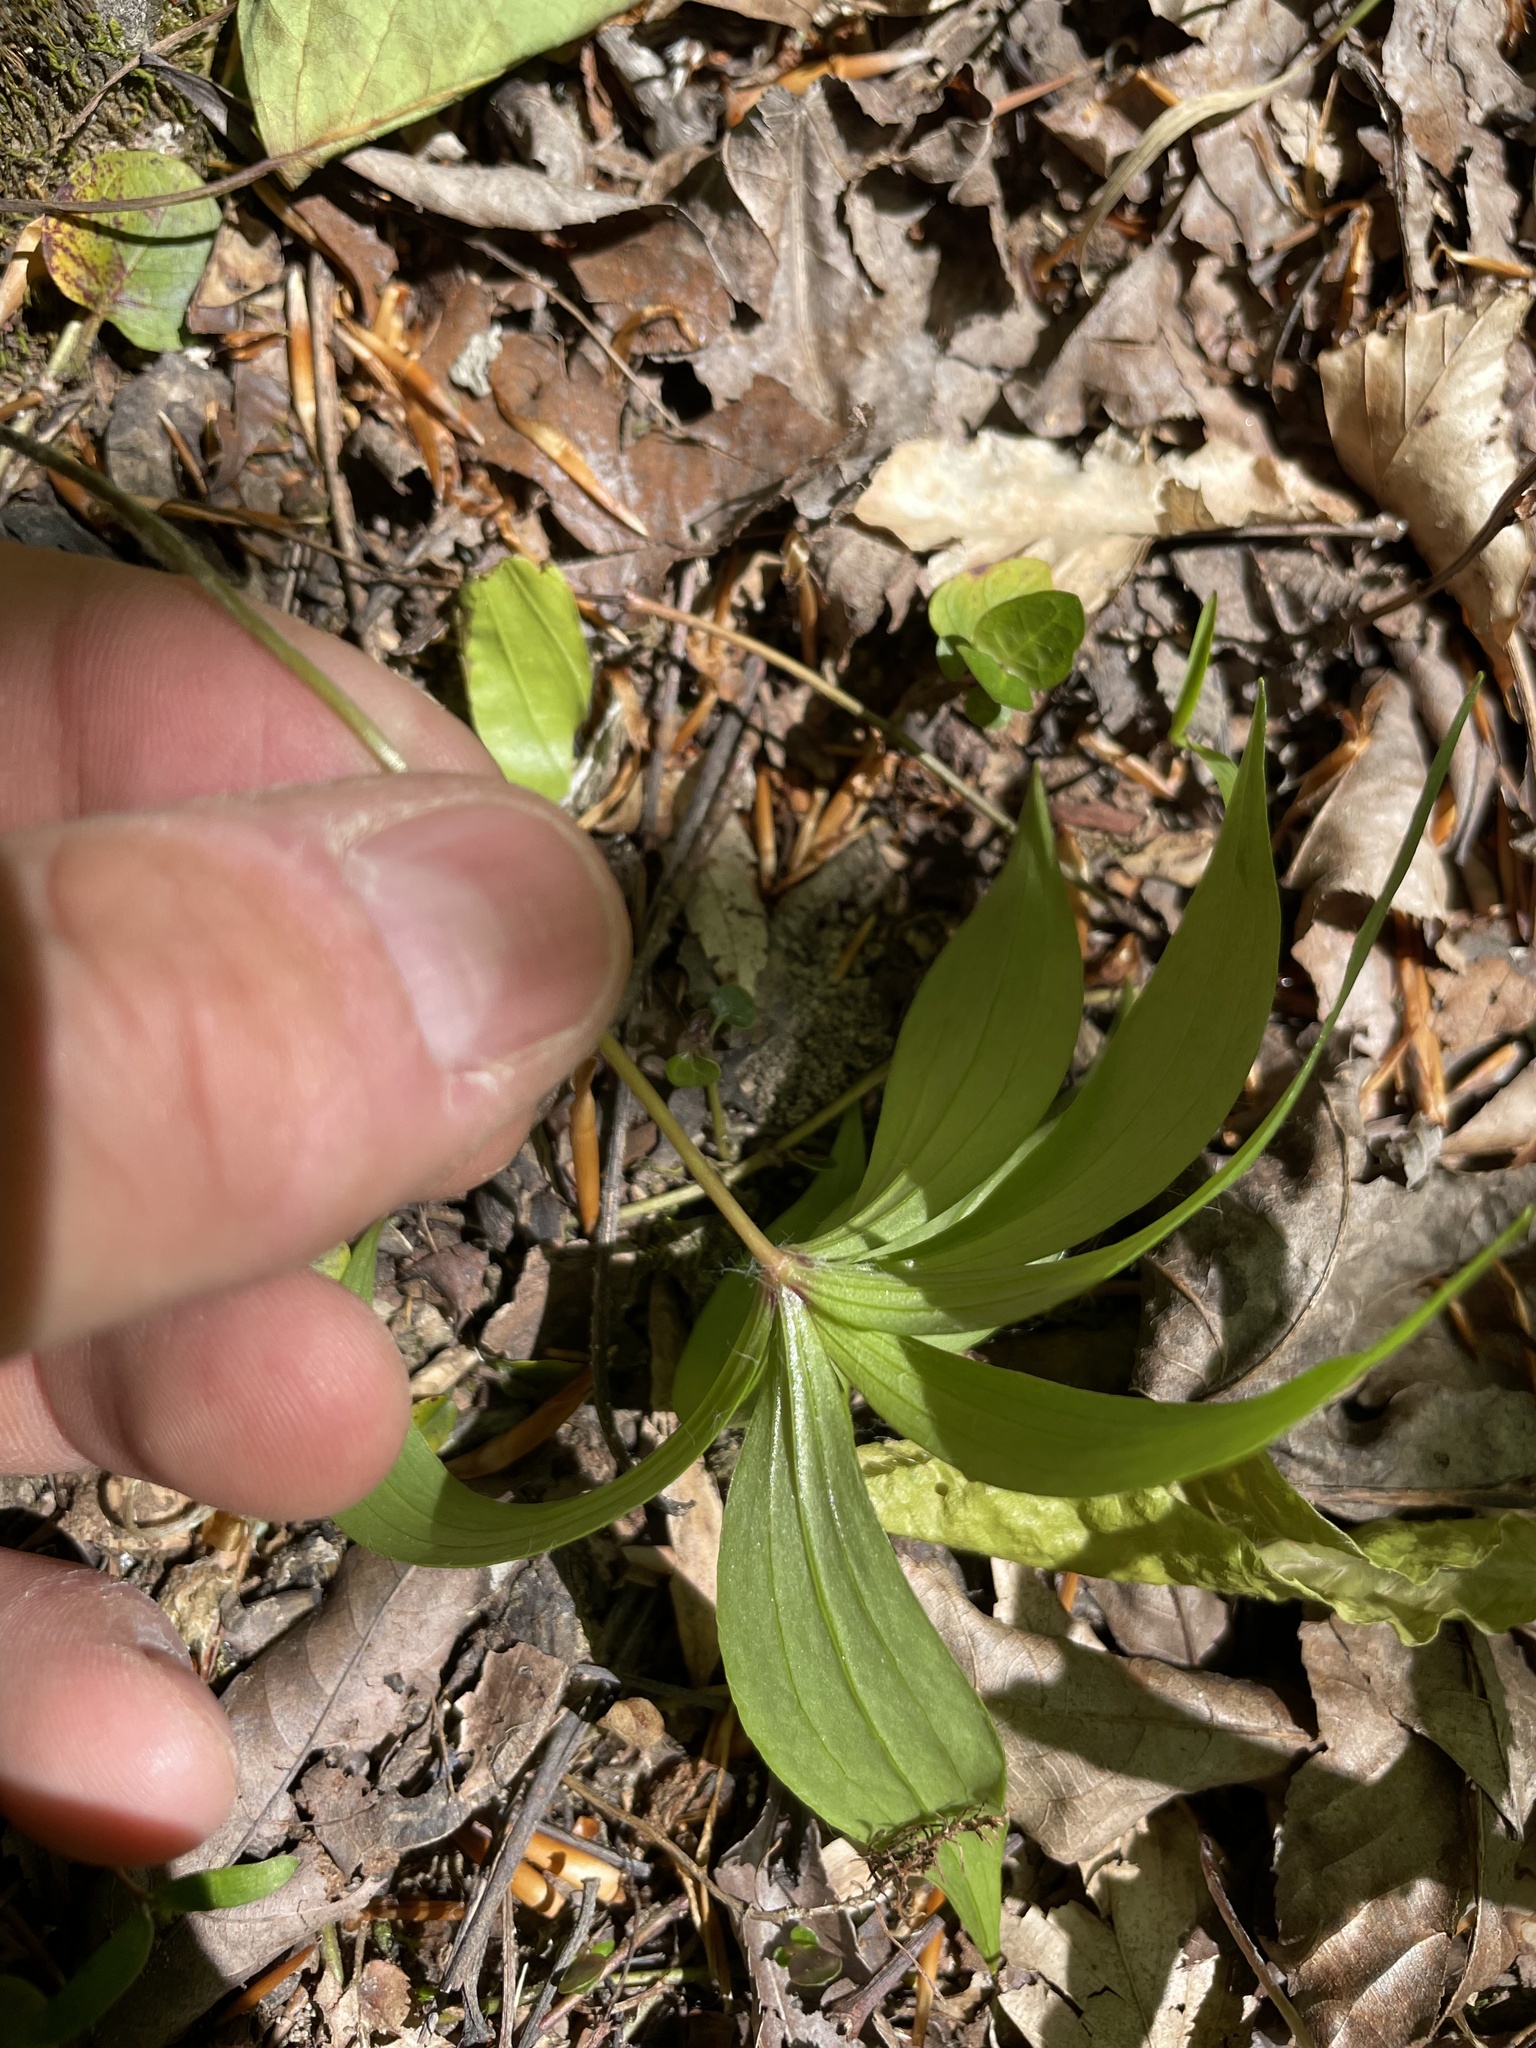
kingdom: Plantae
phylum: Tracheophyta
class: Liliopsida
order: Liliales
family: Liliaceae
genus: Medeola
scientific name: Medeola virginiana
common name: Indian cucumber-root
